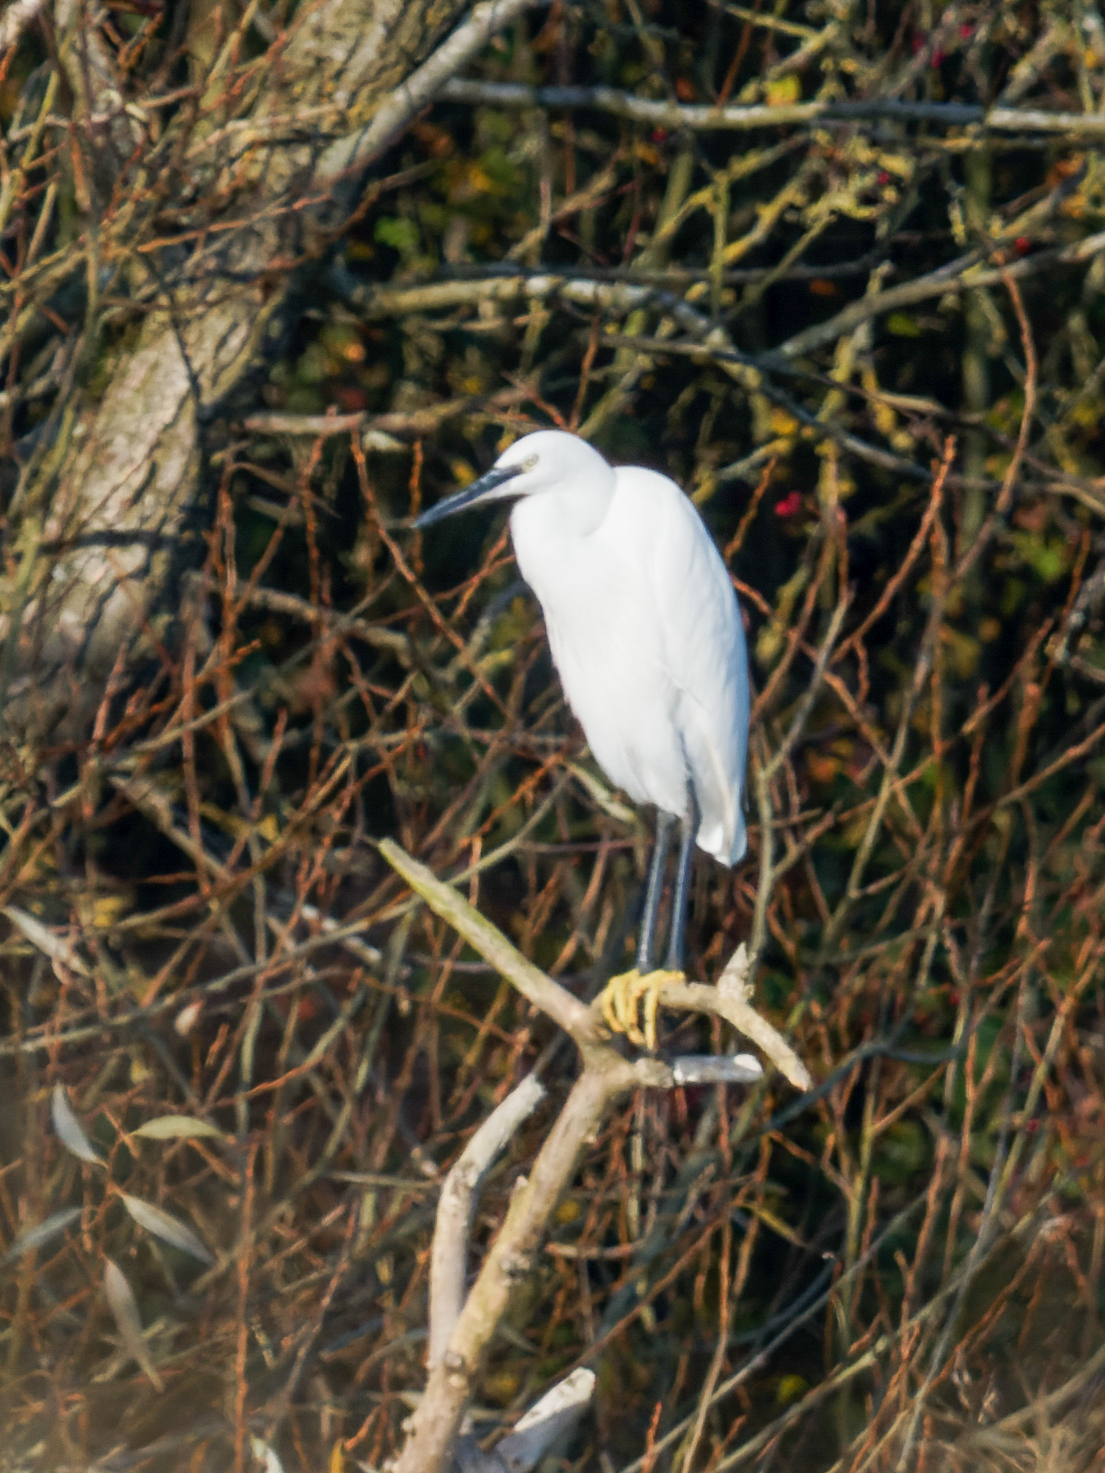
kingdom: Animalia
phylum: Chordata
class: Aves
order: Pelecaniformes
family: Ardeidae
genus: Egretta
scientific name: Egretta garzetta
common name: Little egret
